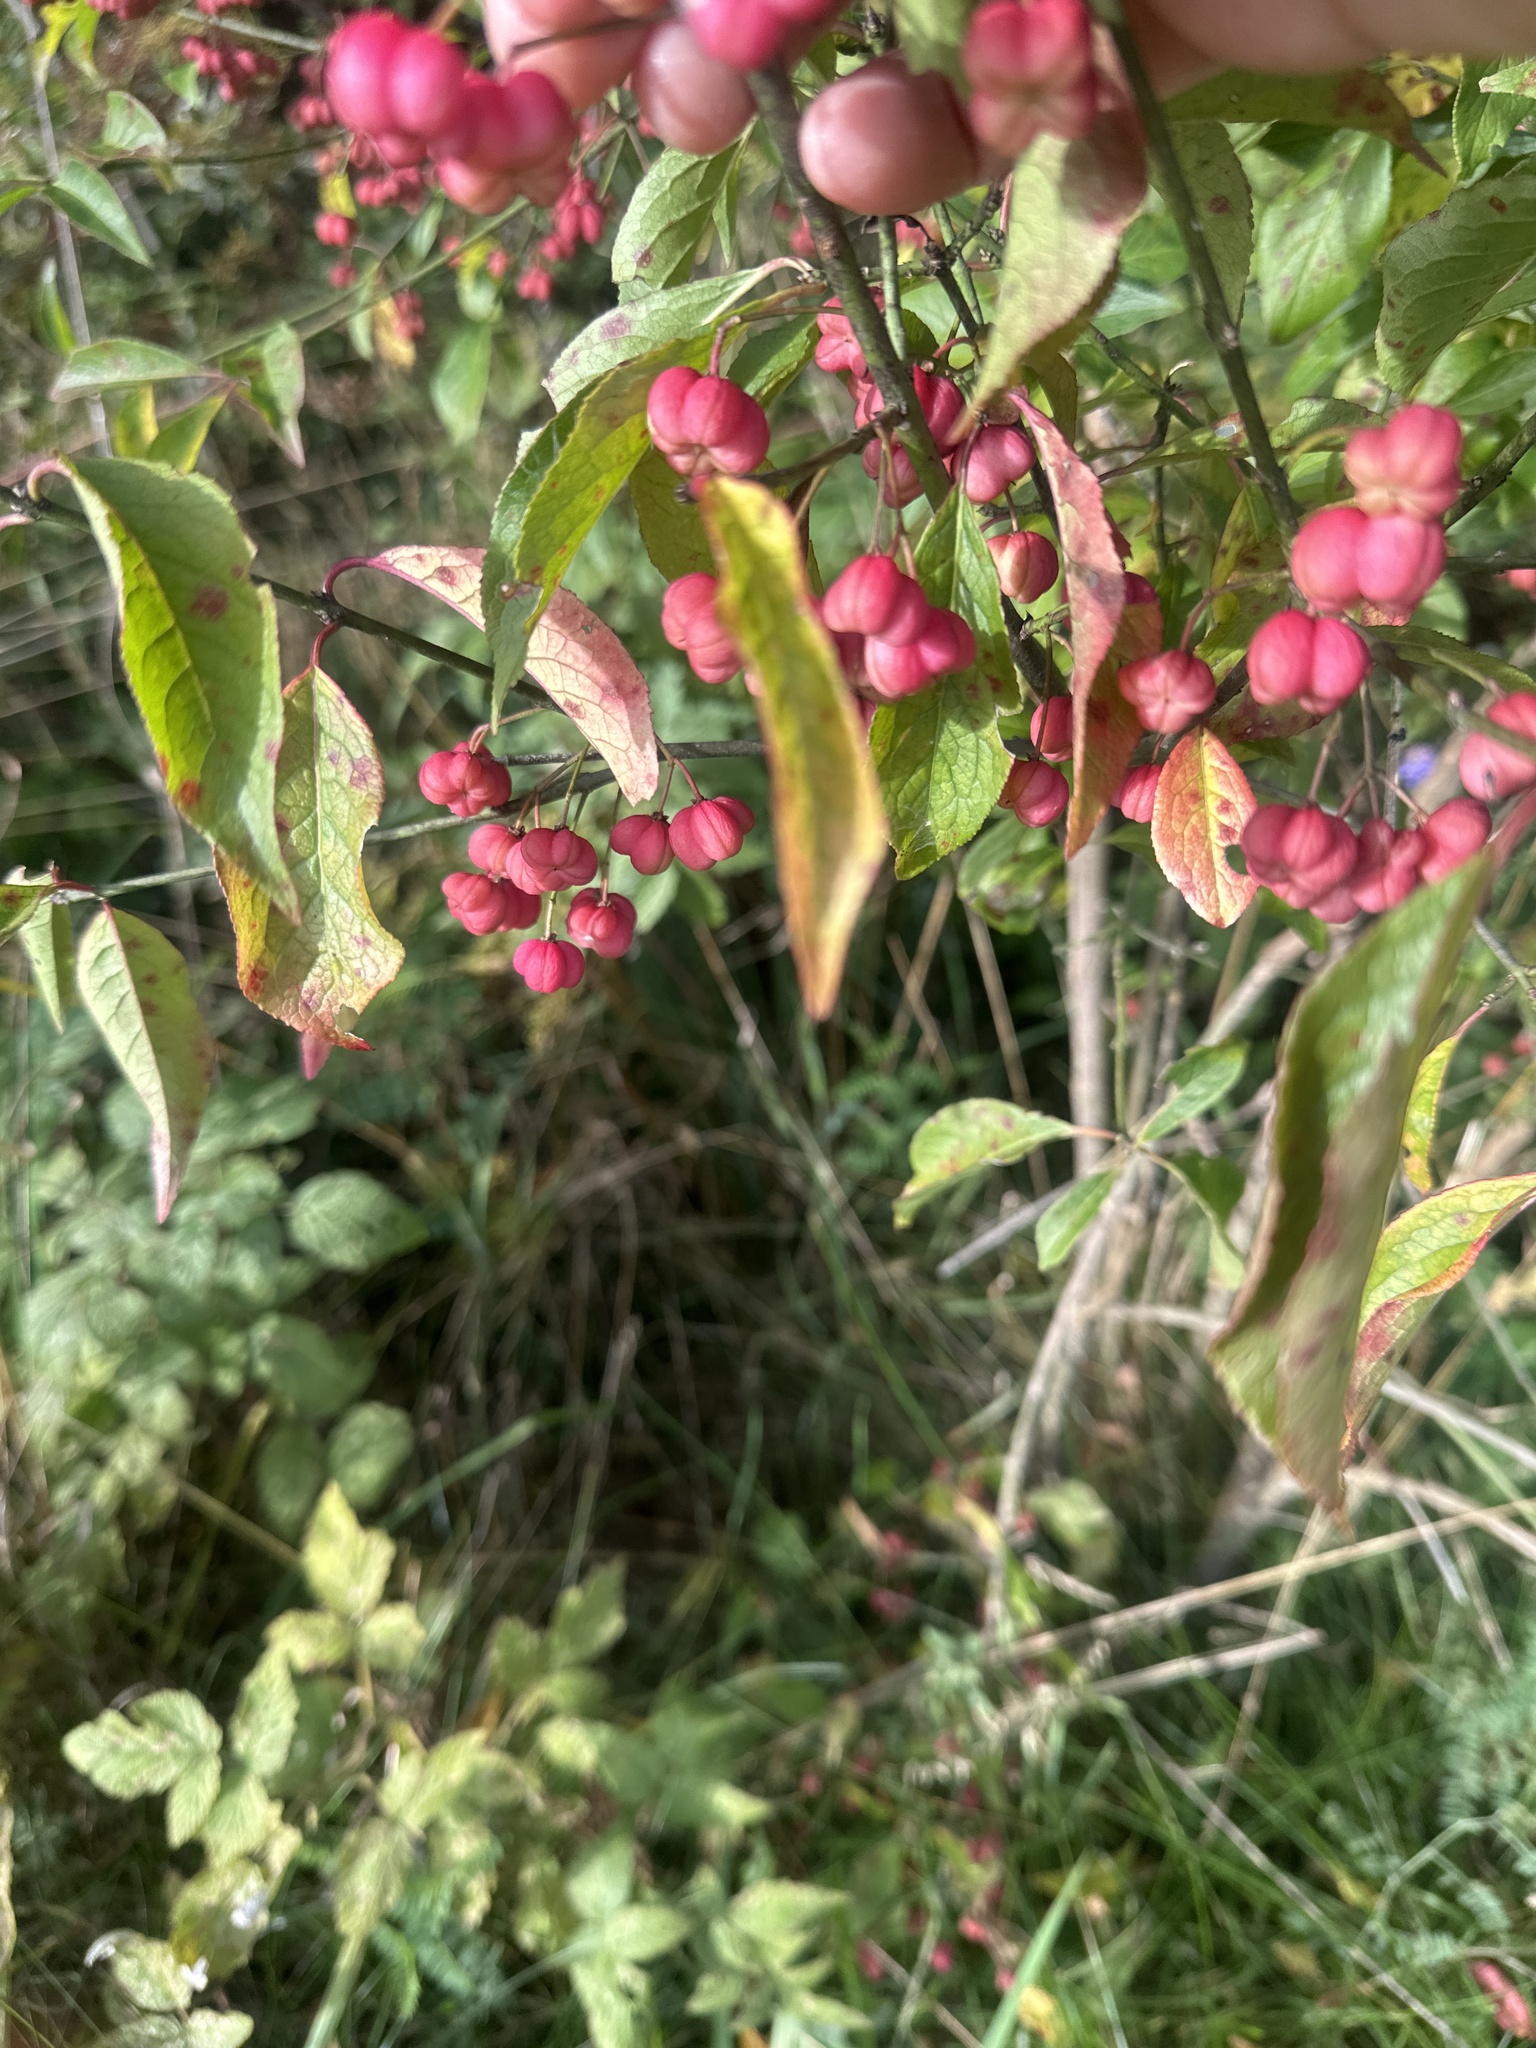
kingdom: Plantae
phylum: Tracheophyta
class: Magnoliopsida
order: Celastrales
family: Celastraceae
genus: Euonymus
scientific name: Euonymus europaeus
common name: Spindle
